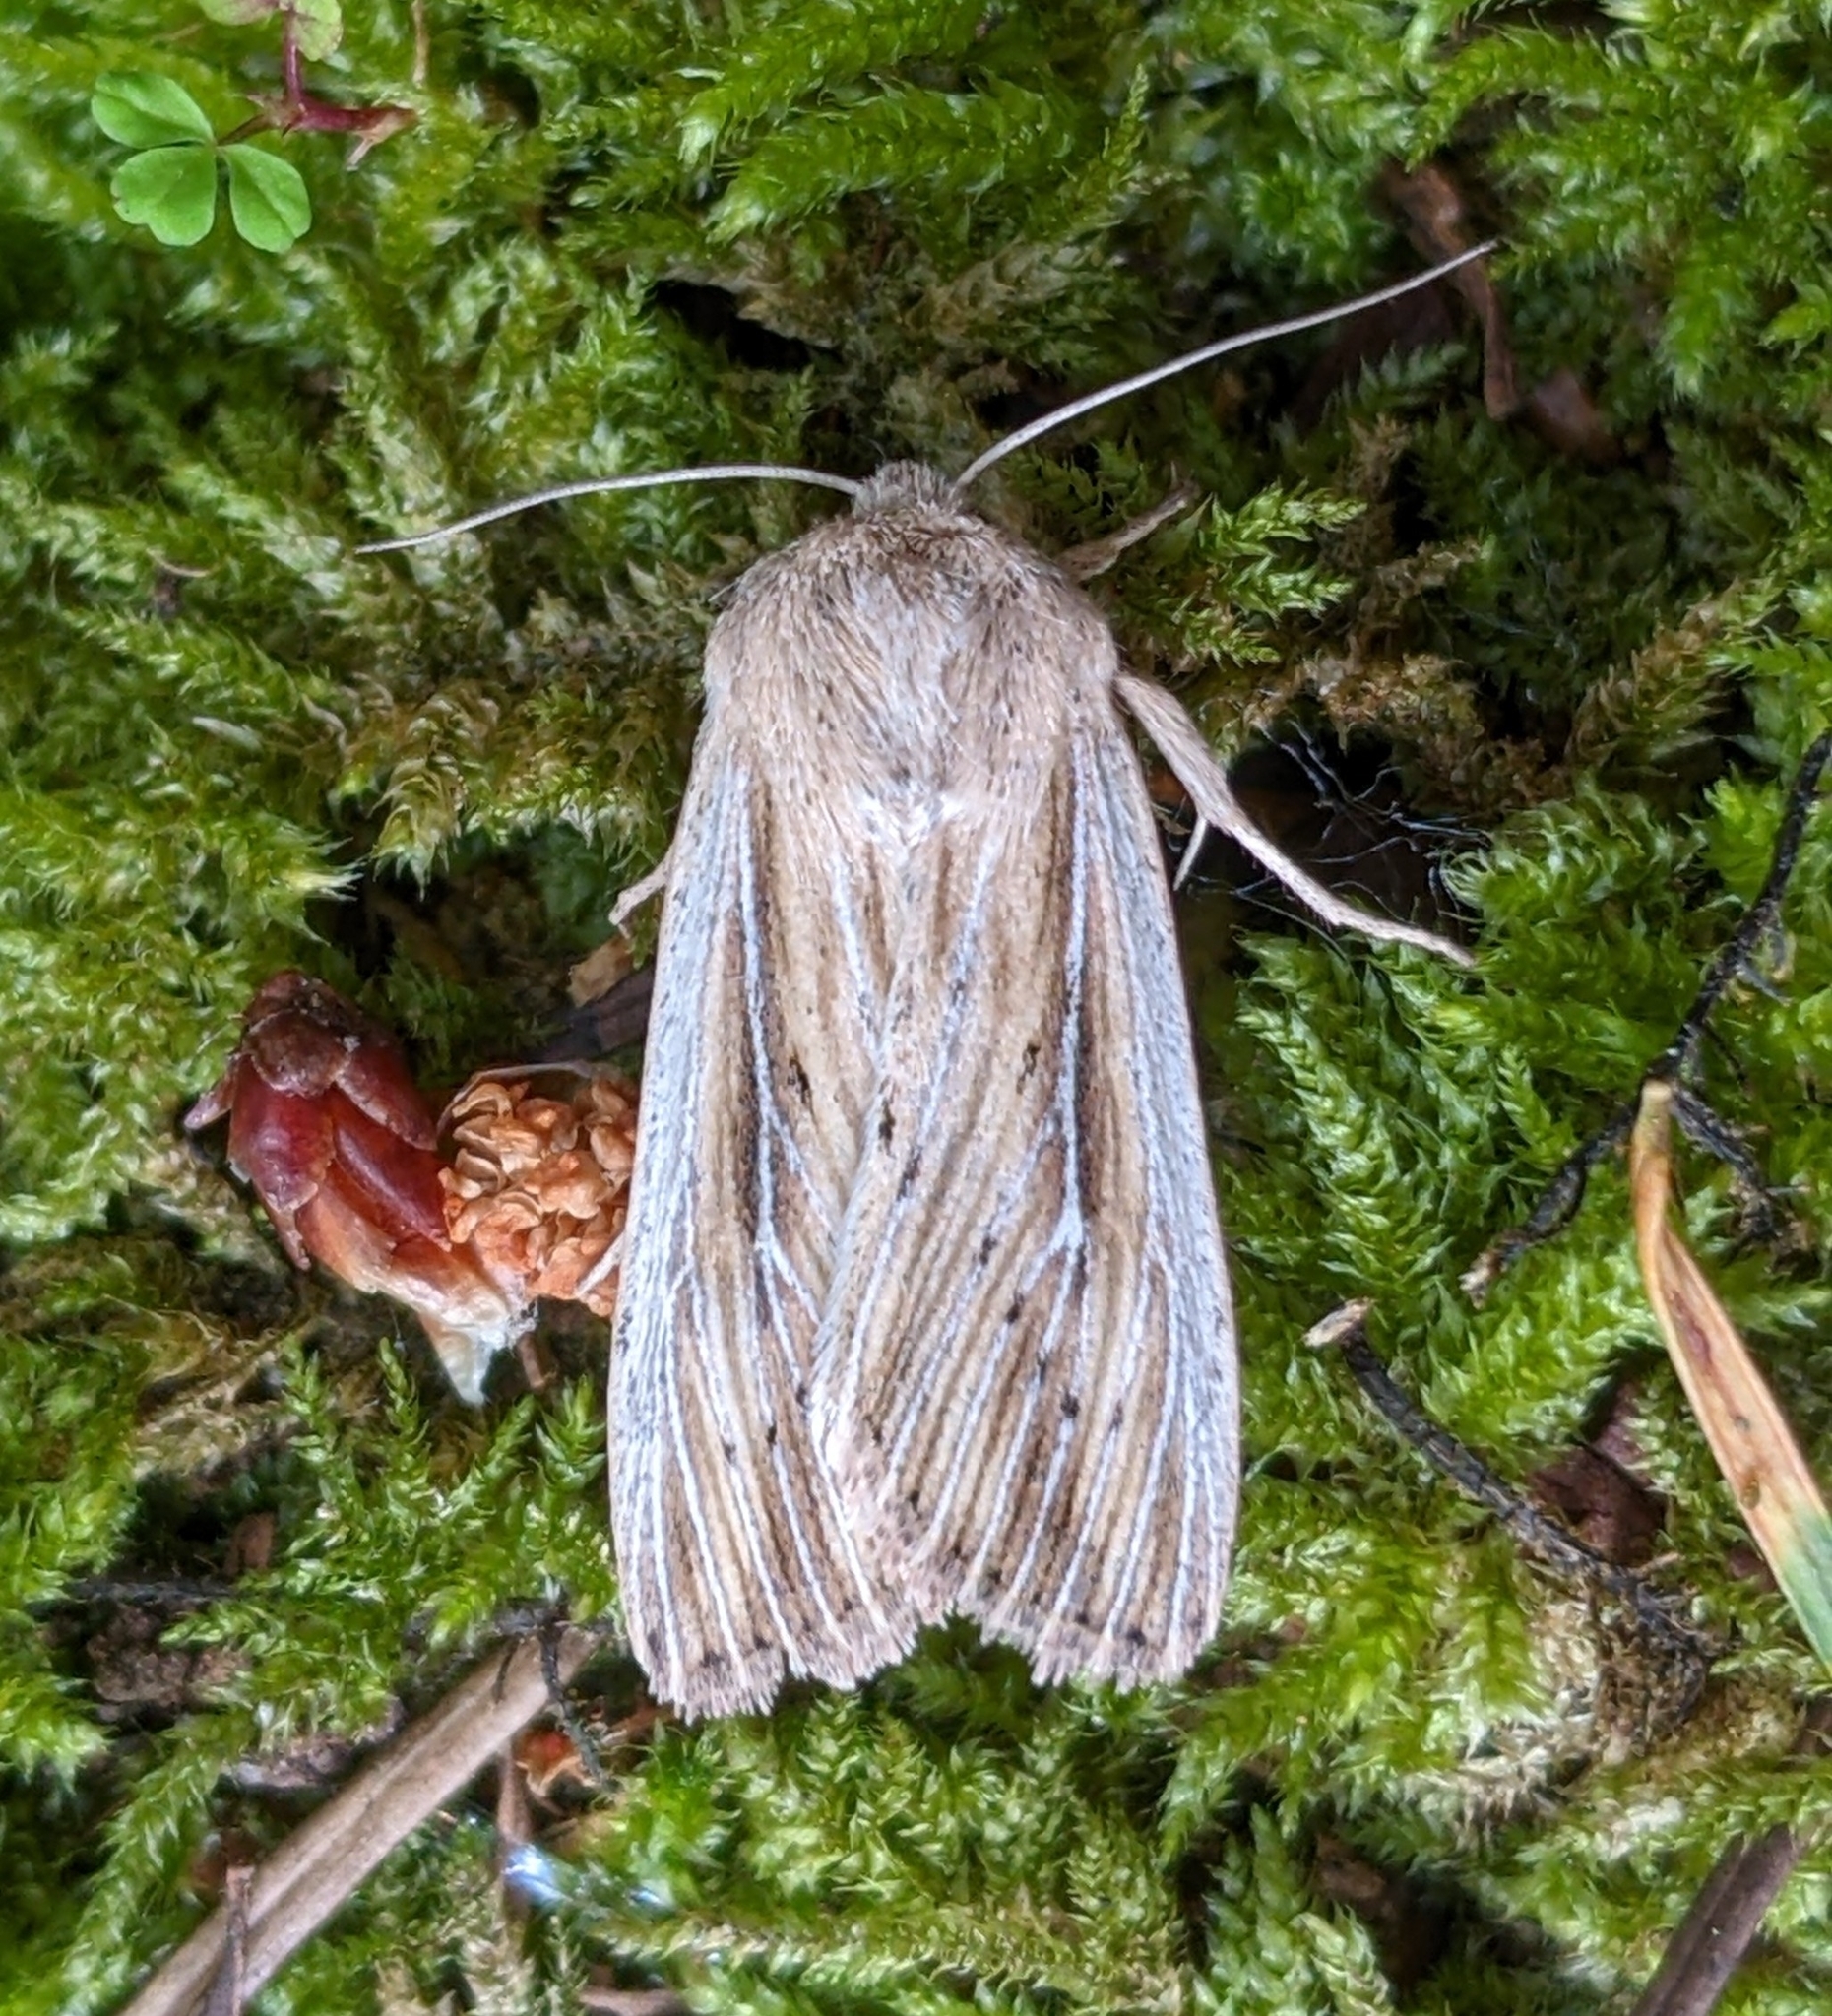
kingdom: Animalia
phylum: Arthropoda
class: Insecta
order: Lepidoptera
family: Noctuidae
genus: Leucania
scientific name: Leucania insueta
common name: Heterodox wainscot moth
